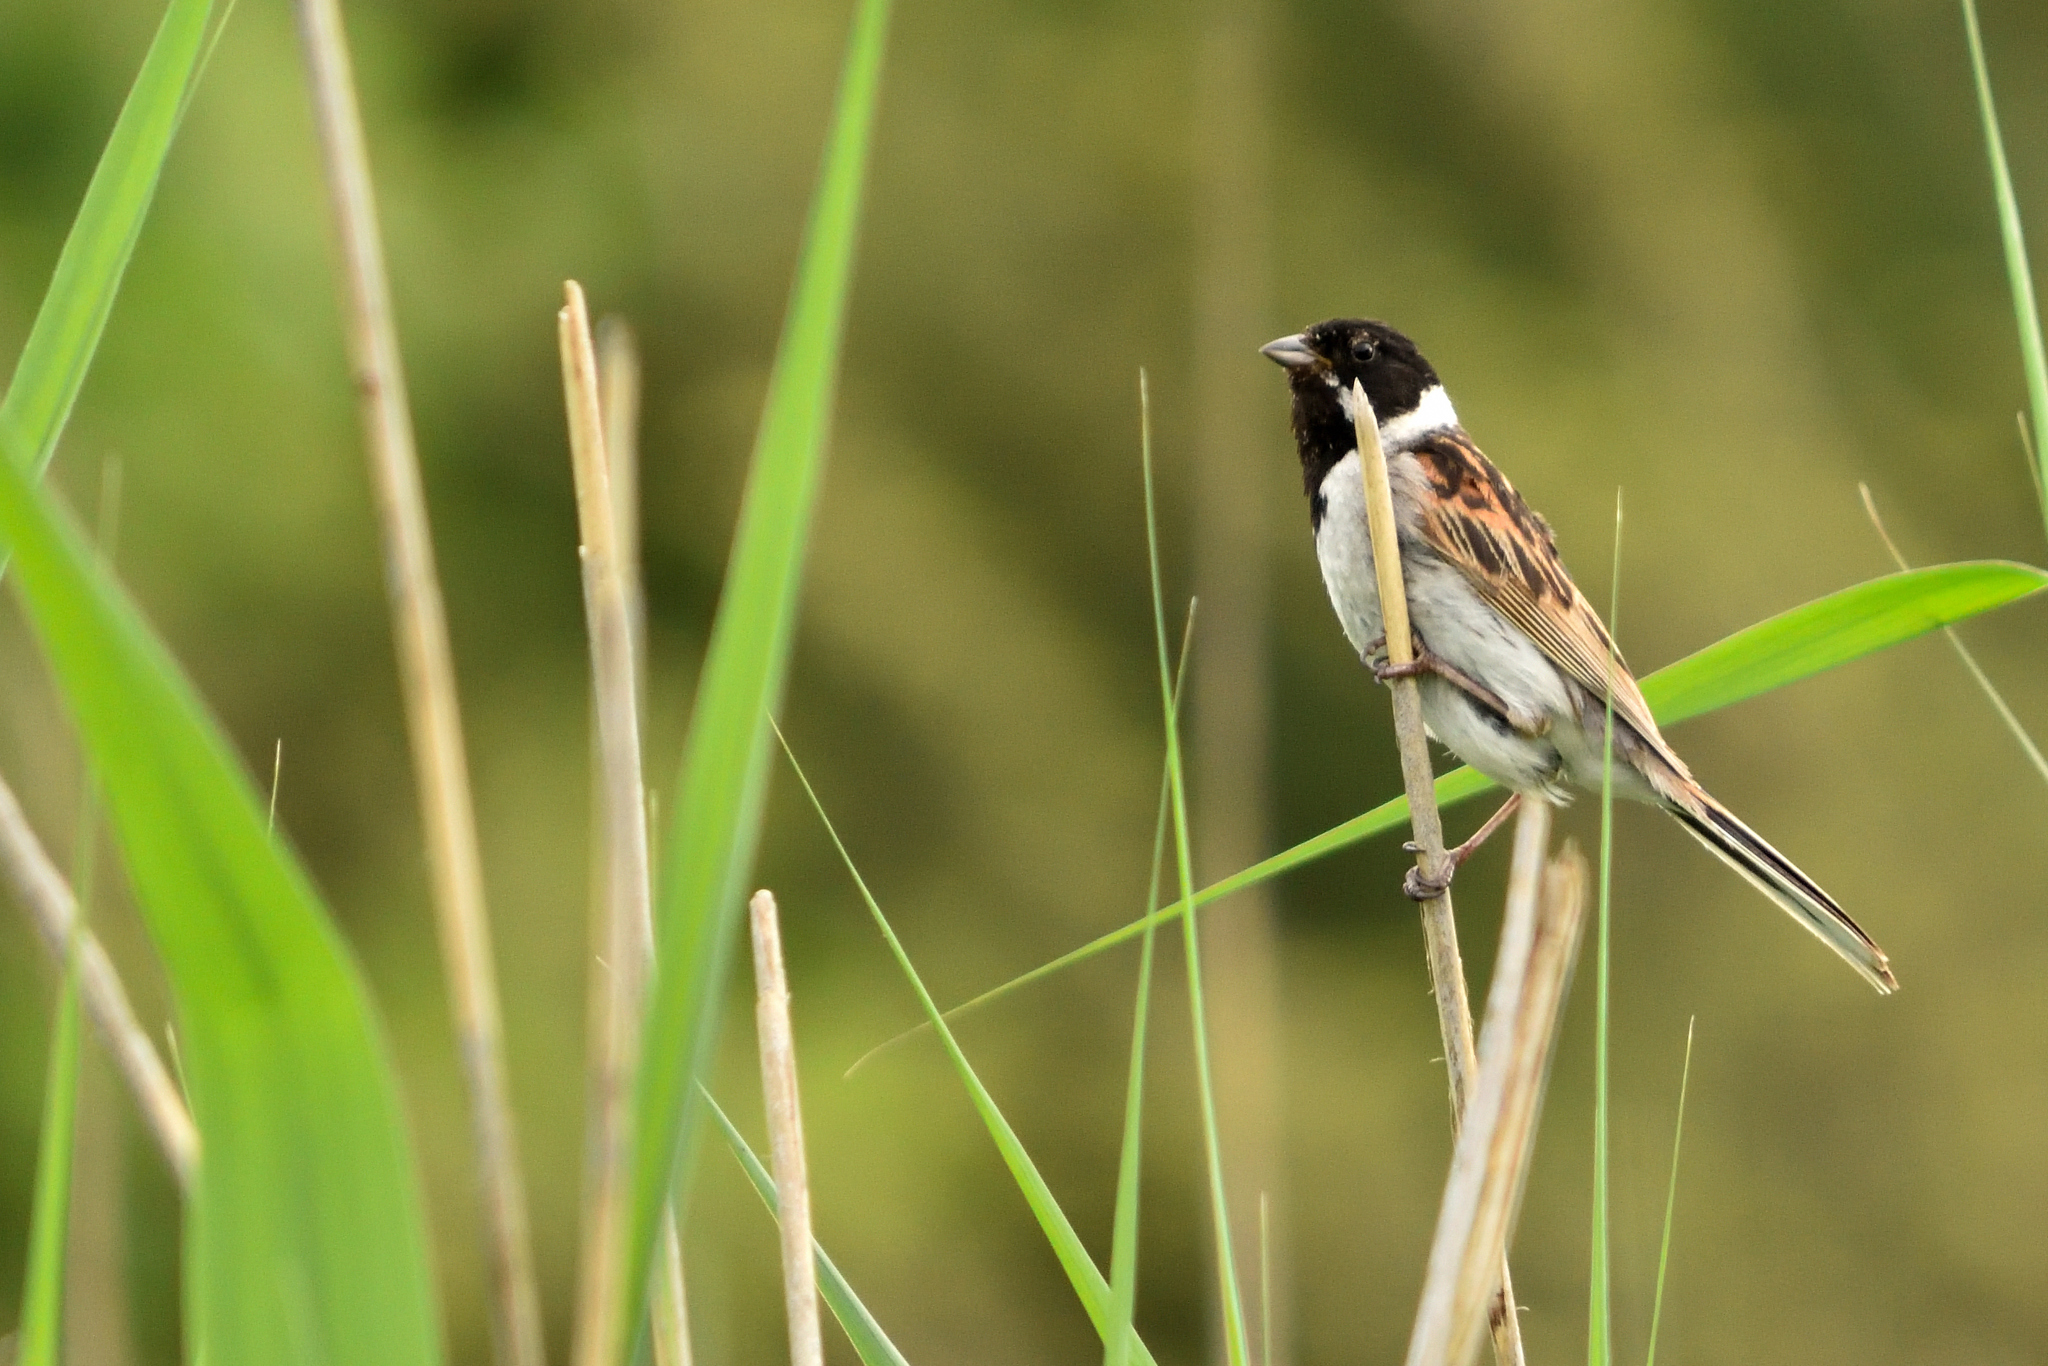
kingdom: Animalia
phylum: Chordata
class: Aves
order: Passeriformes
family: Emberizidae
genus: Emberiza
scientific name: Emberiza schoeniclus
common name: Reed bunting
